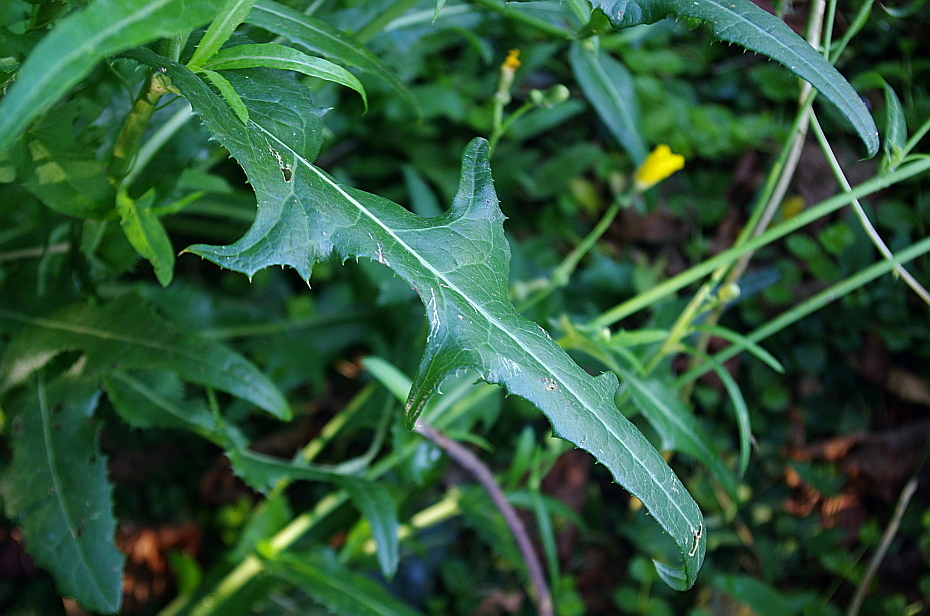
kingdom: Plantae
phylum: Tracheophyta
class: Magnoliopsida
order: Asterales
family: Asteraceae
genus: Sonchus
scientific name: Sonchus arvensis
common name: Perennial sow-thistle
